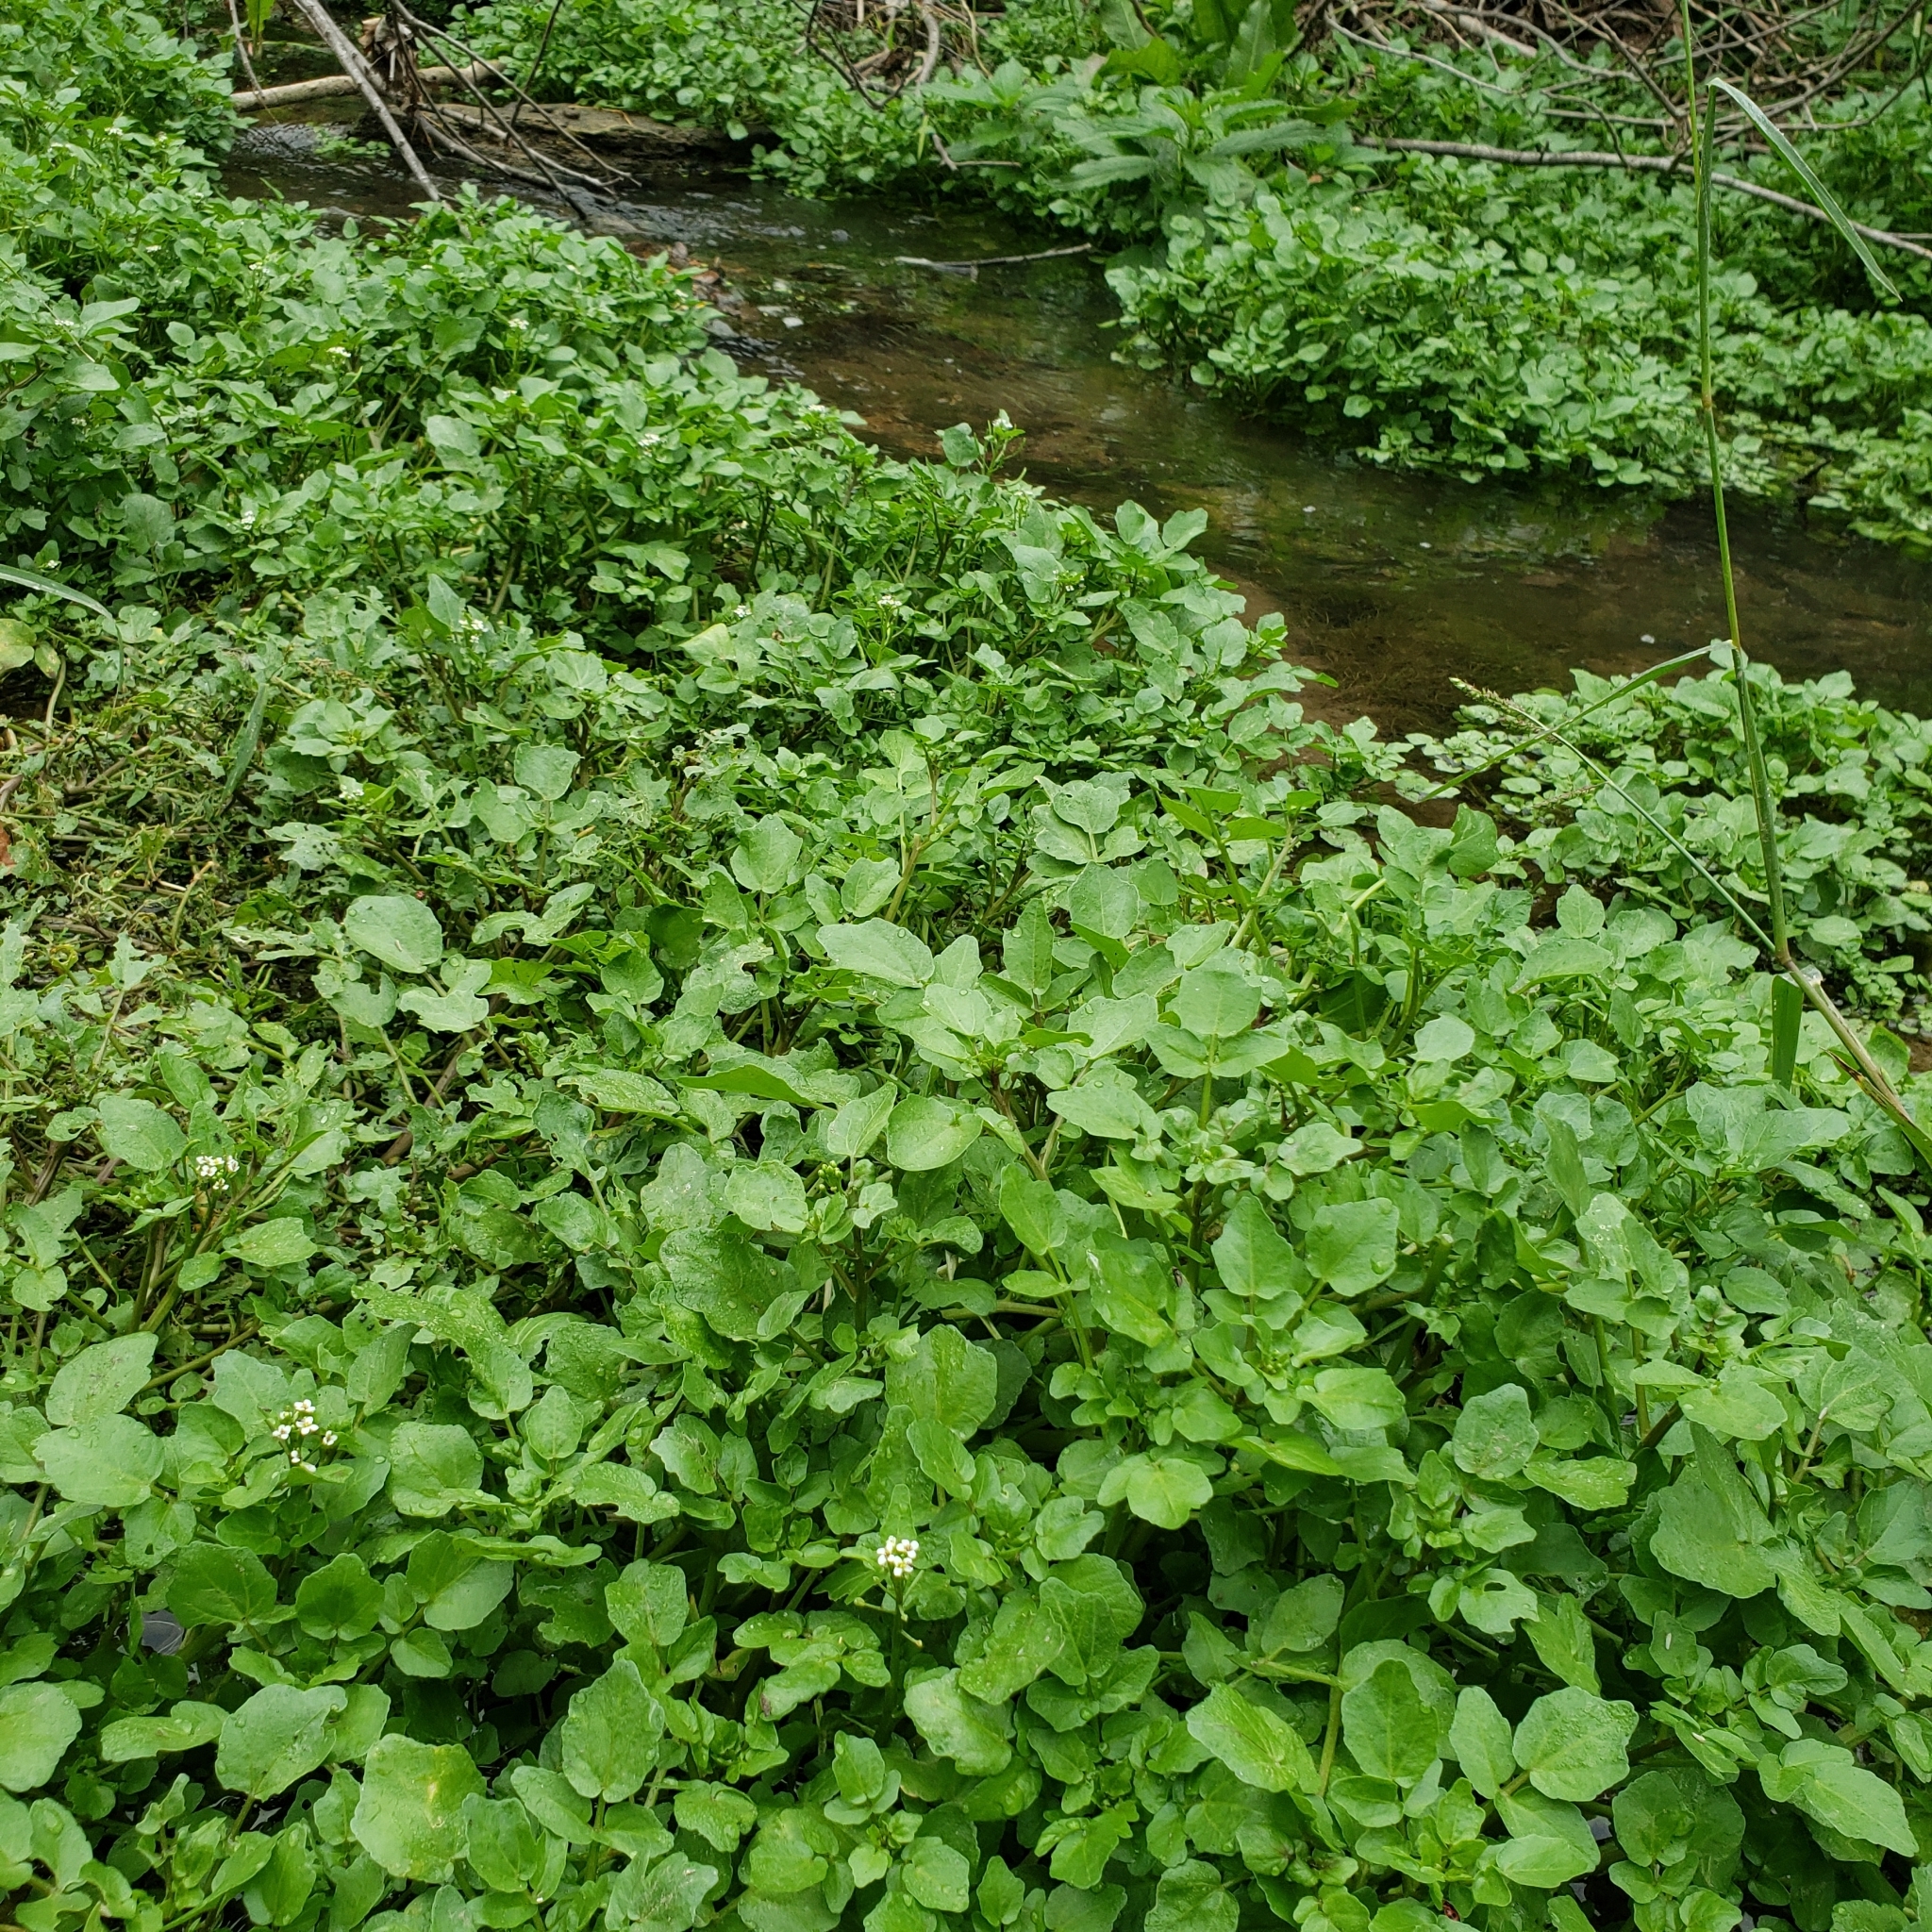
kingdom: Plantae
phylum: Tracheophyta
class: Magnoliopsida
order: Brassicales
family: Brassicaceae
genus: Nasturtium
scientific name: Nasturtium officinale
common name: Watercress
